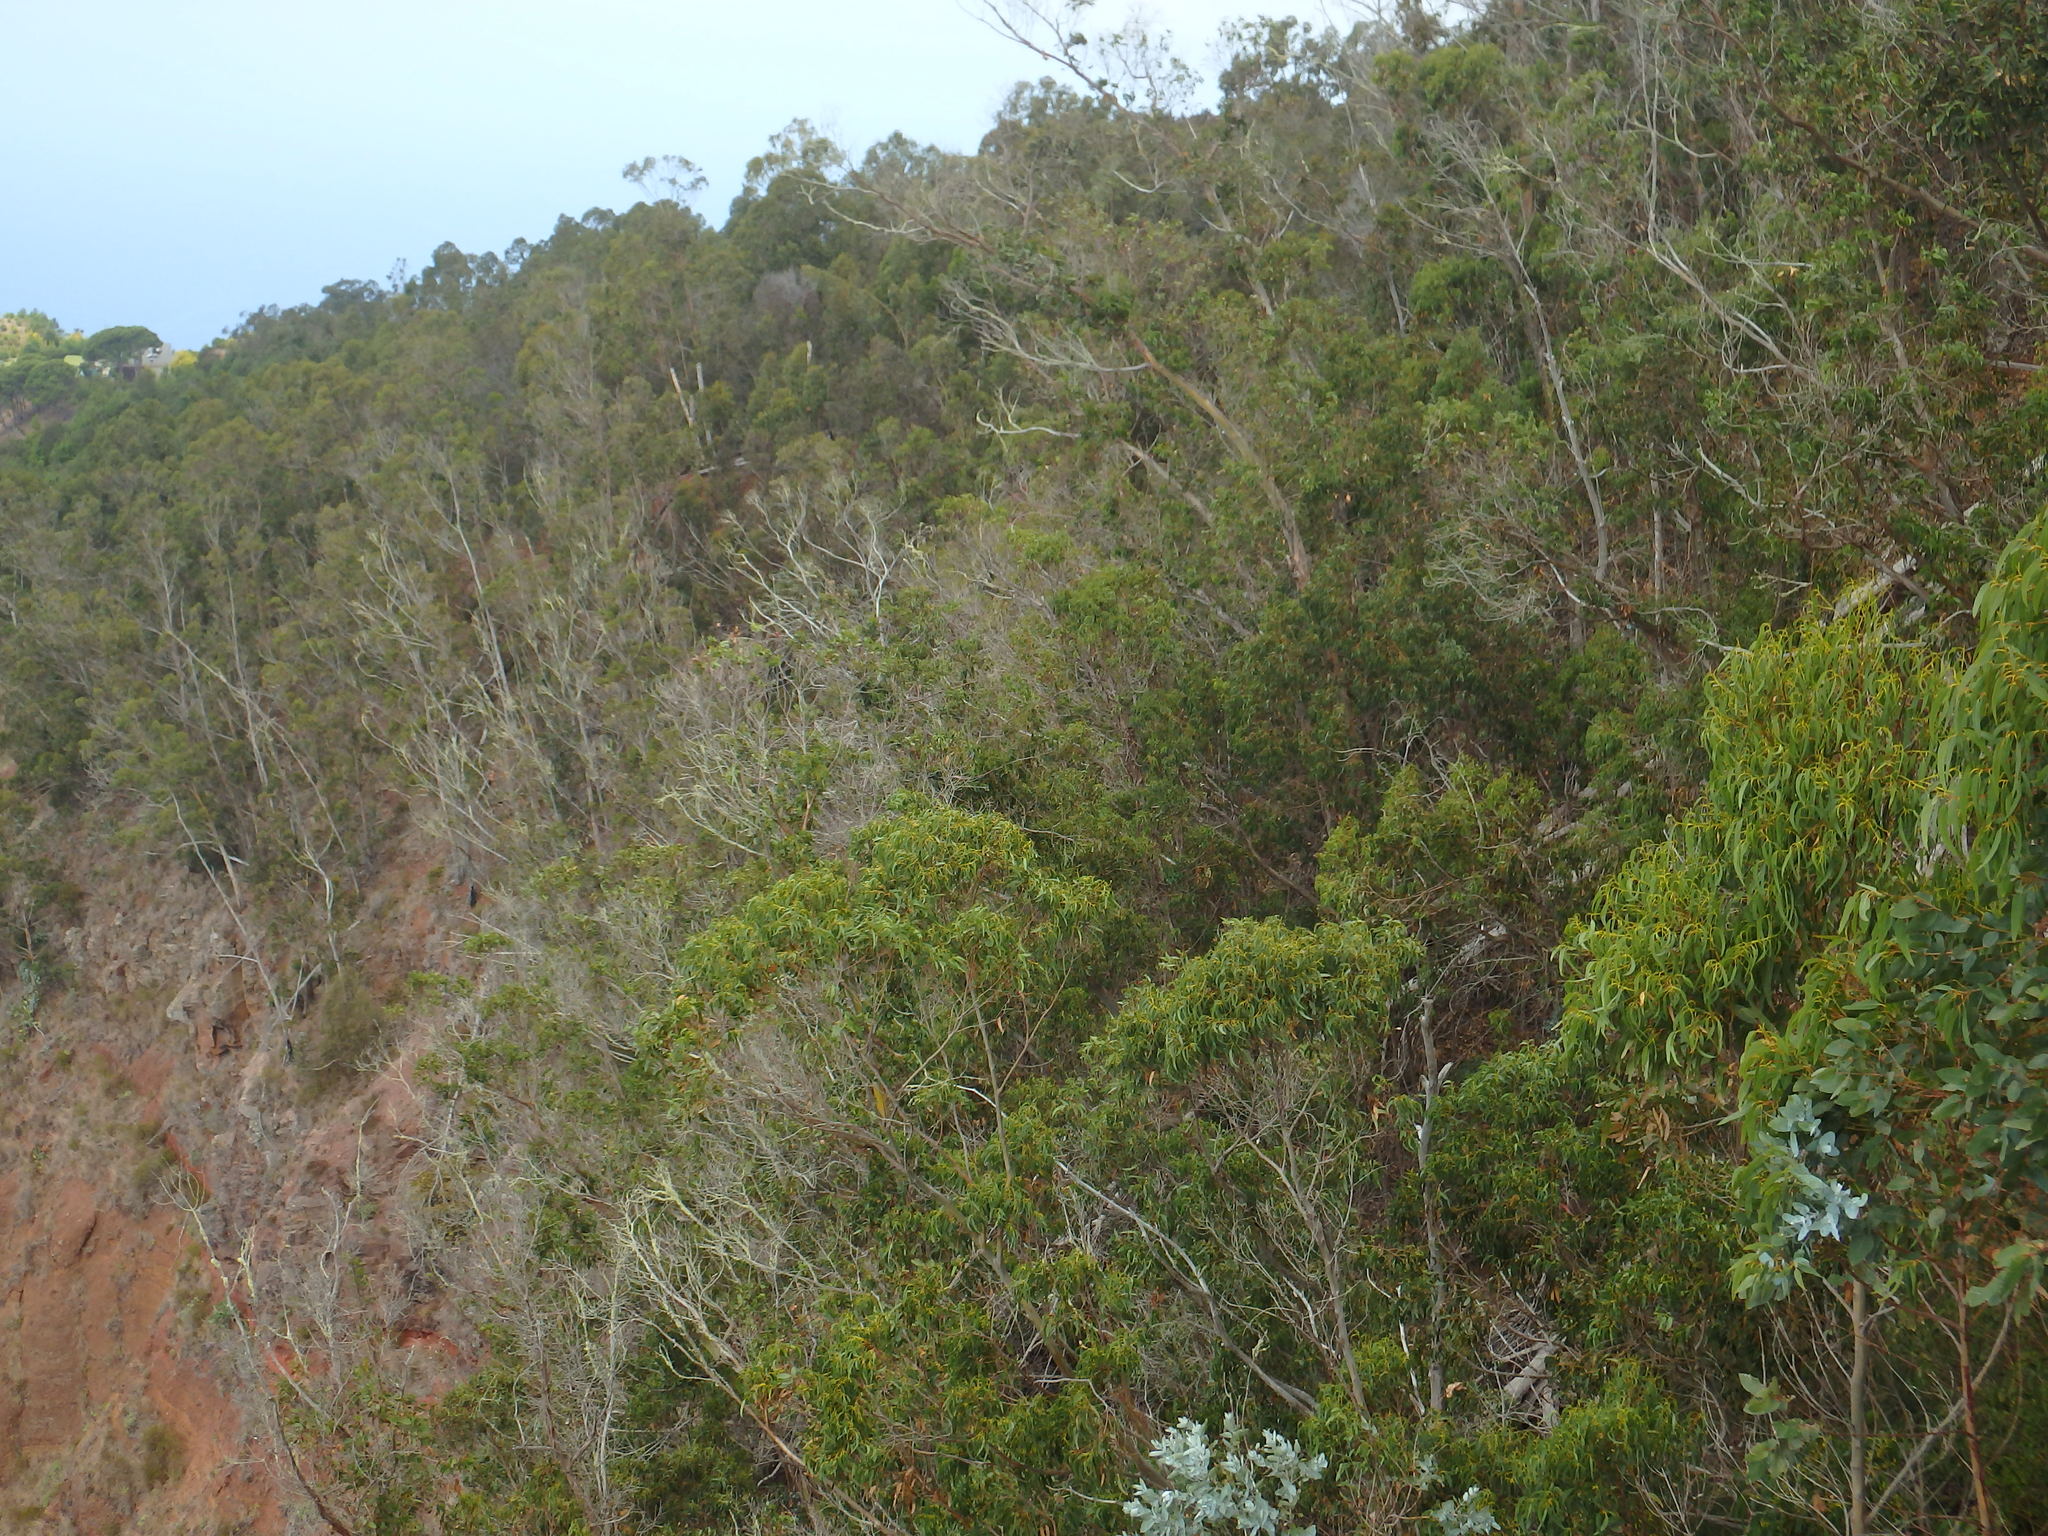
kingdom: Plantae
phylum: Tracheophyta
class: Magnoliopsida
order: Myrtales
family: Myrtaceae
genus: Eucalyptus
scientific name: Eucalyptus globulus
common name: Southern blue-gum
